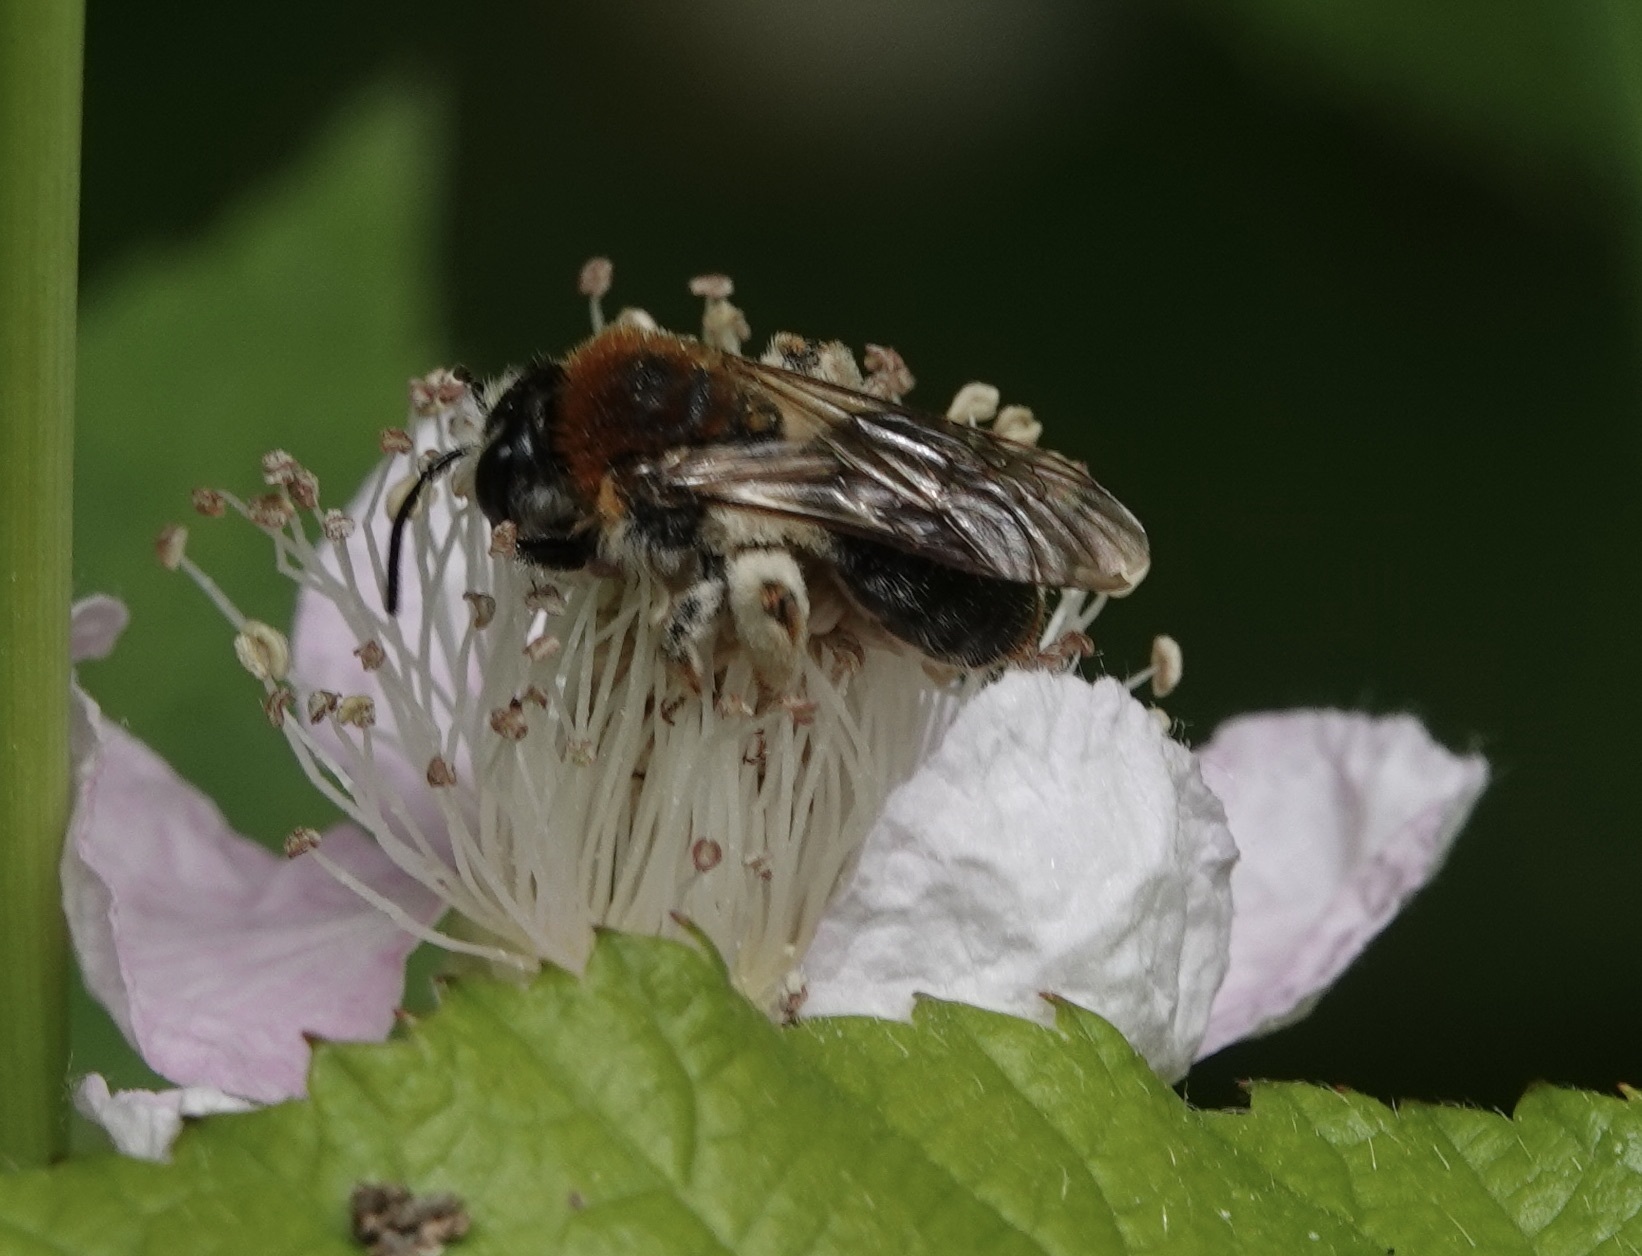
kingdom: Animalia
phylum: Arthropoda
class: Insecta
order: Hymenoptera
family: Andrenidae
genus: Andrena
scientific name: Andrena haemorrhoa
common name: Early mining bee
